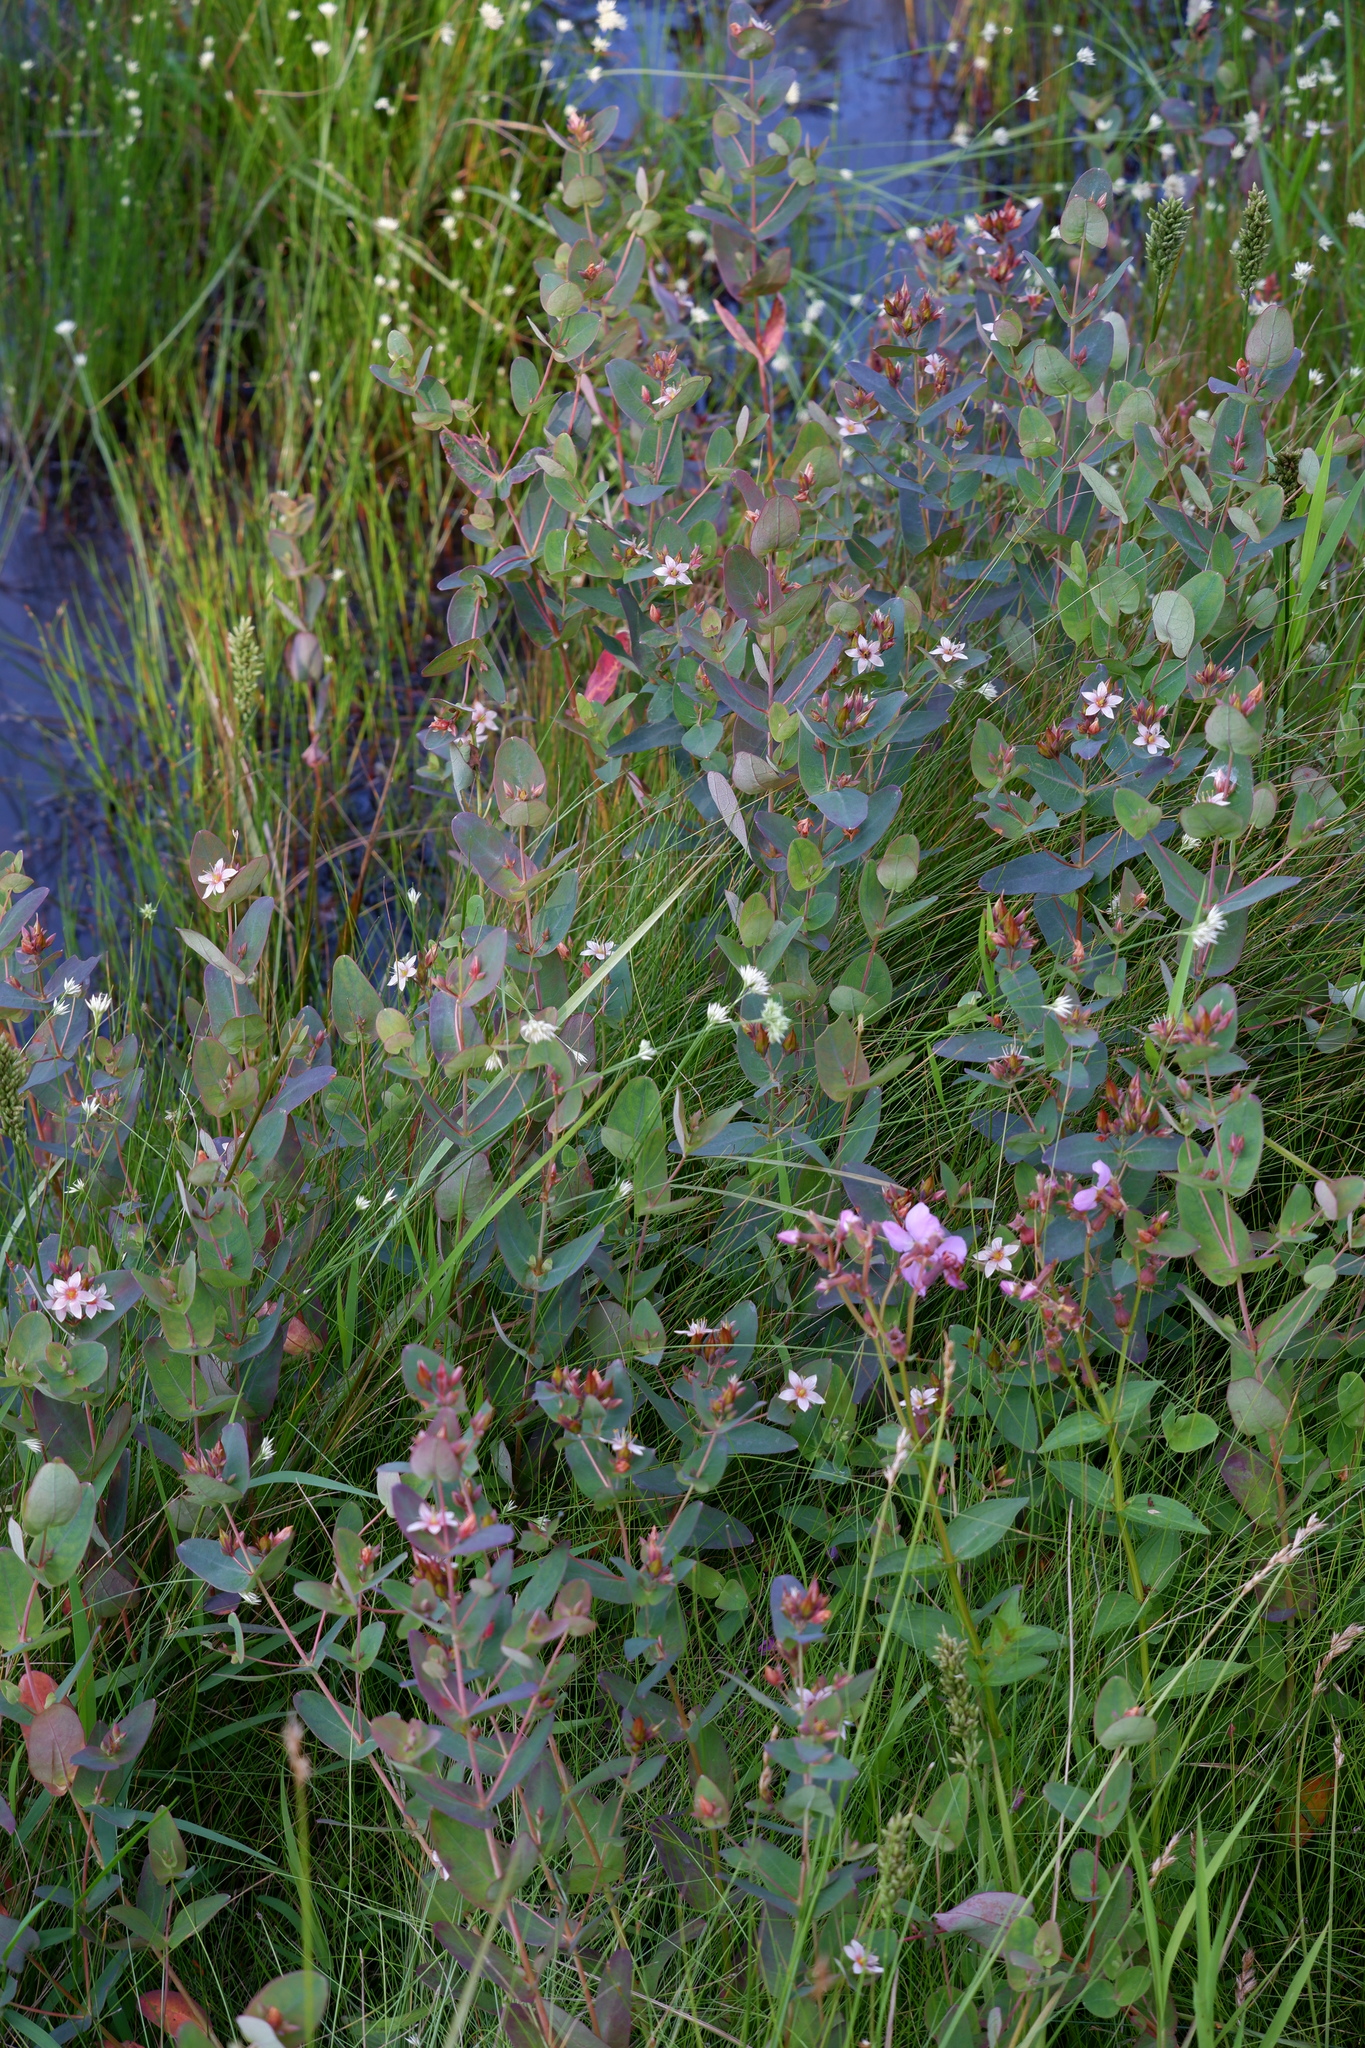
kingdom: Plantae
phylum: Tracheophyta
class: Magnoliopsida
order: Malpighiales
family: Hypericaceae
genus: Triadenum
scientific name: Triadenum virginicum
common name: Marsh st. john's-wort
